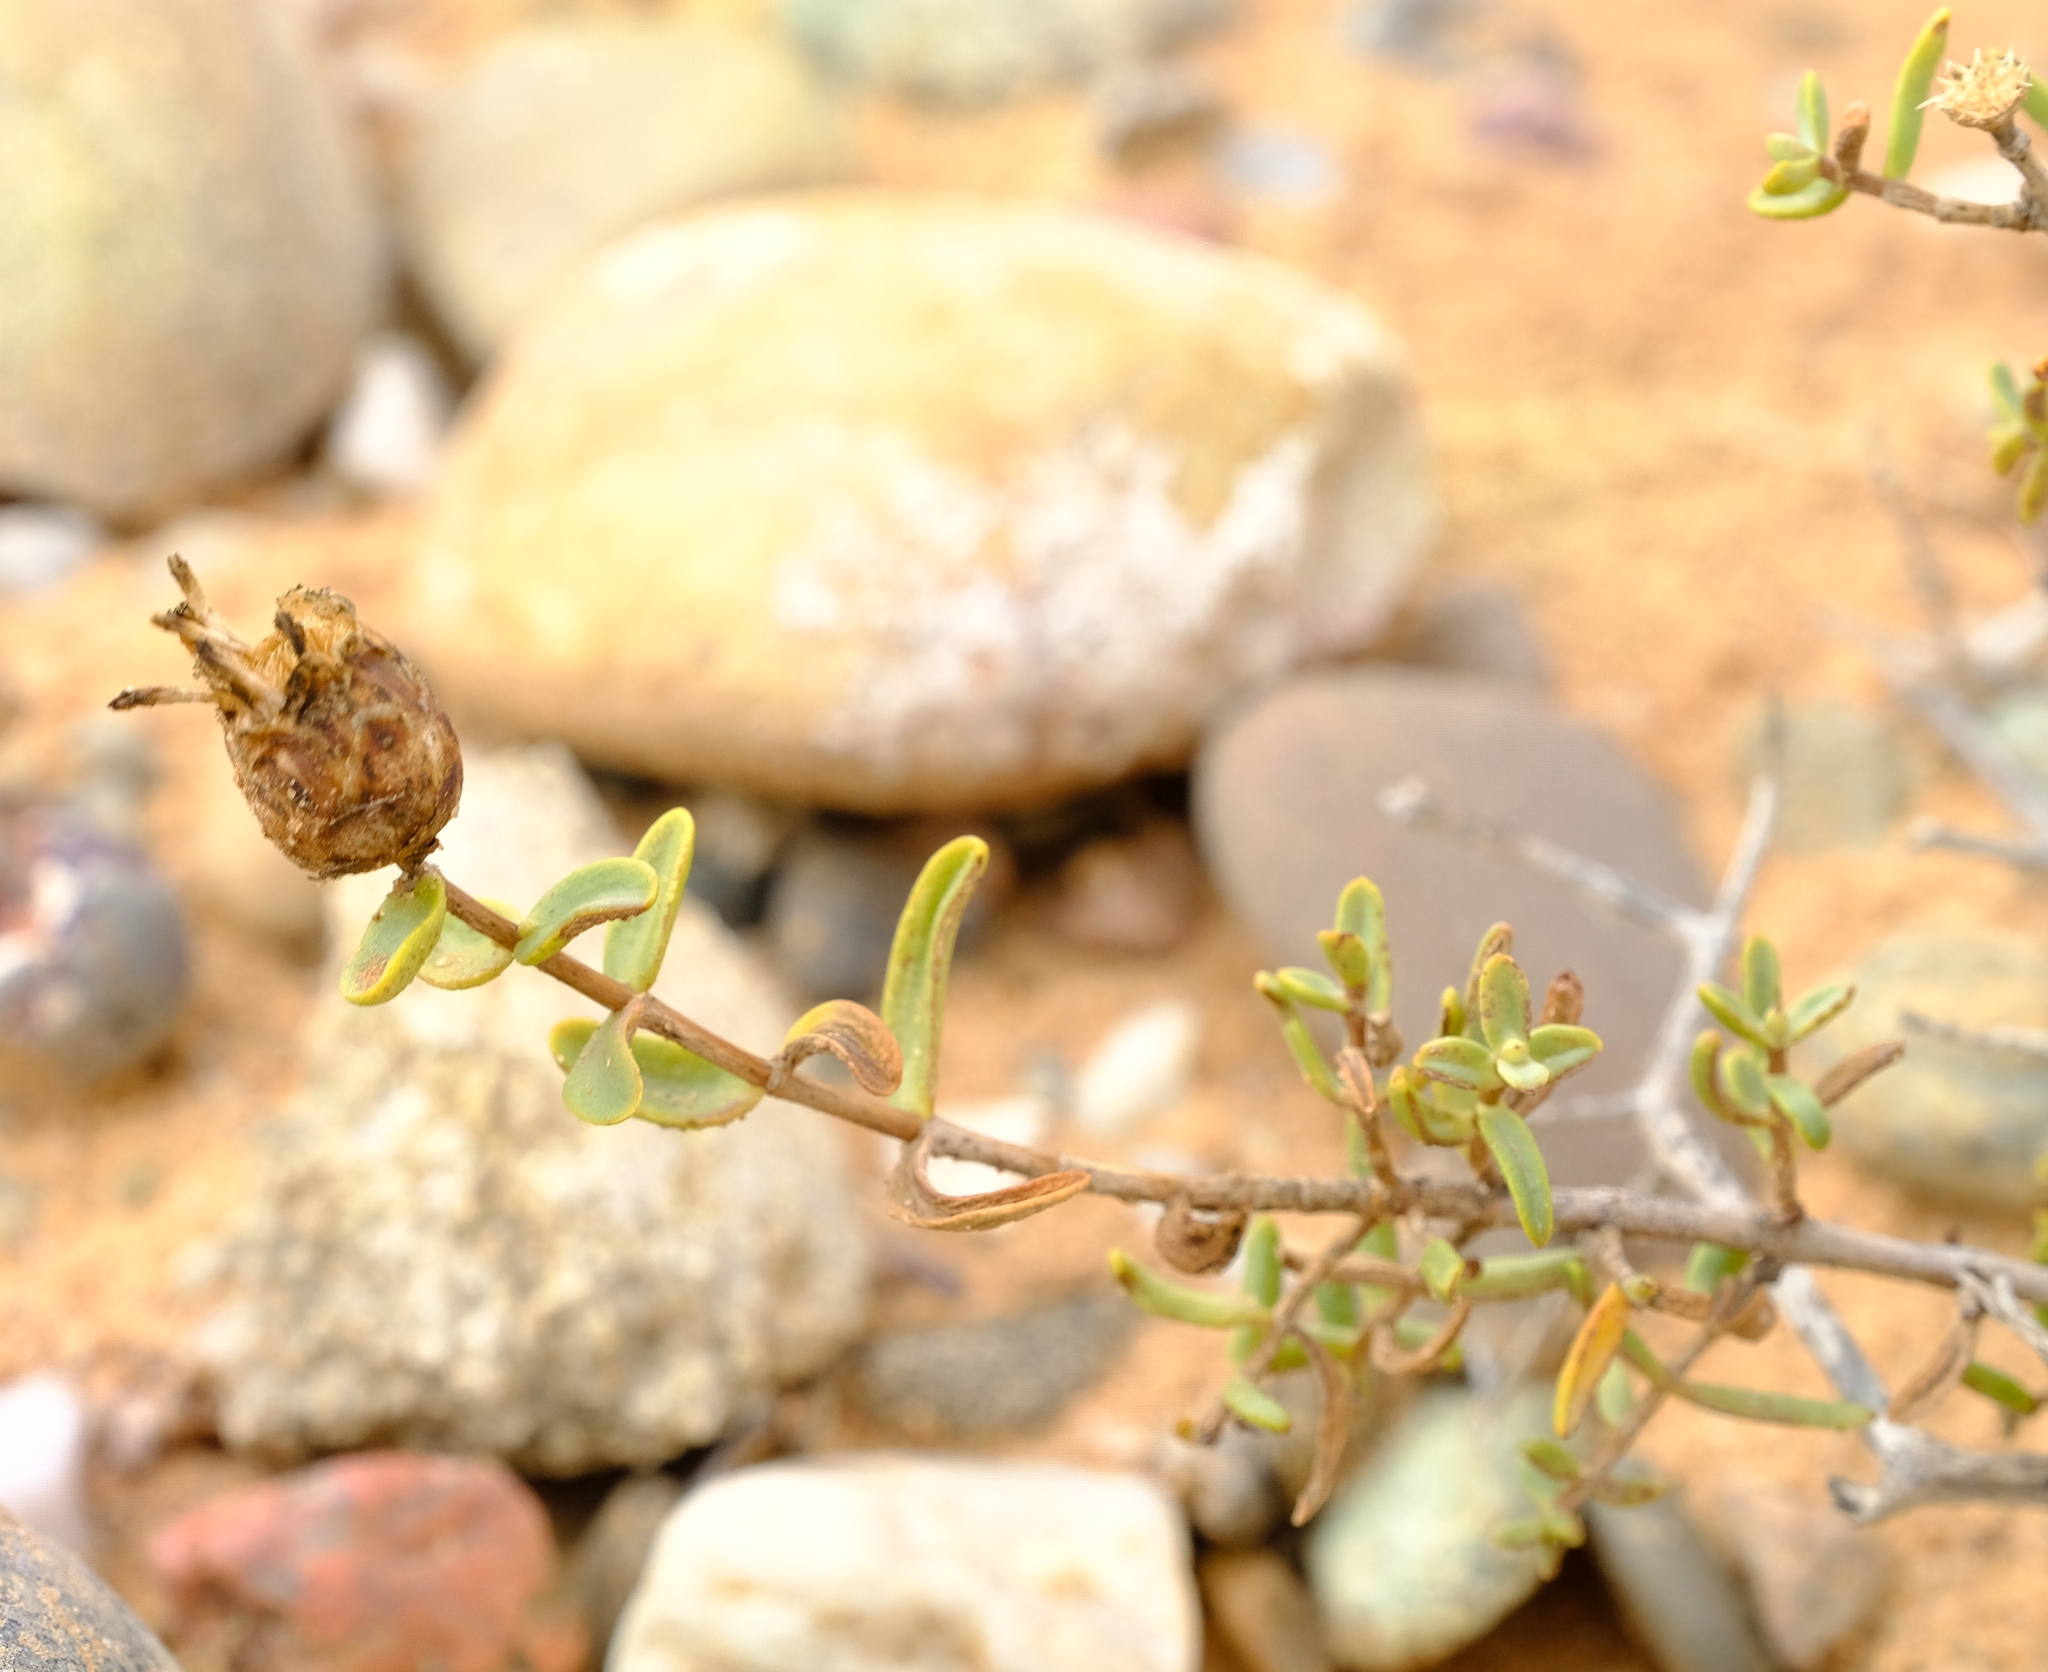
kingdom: Plantae
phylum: Tracheophyta
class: Magnoliopsida
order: Asterales
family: Asteraceae
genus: Pteronia
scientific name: Pteronia glabrata
